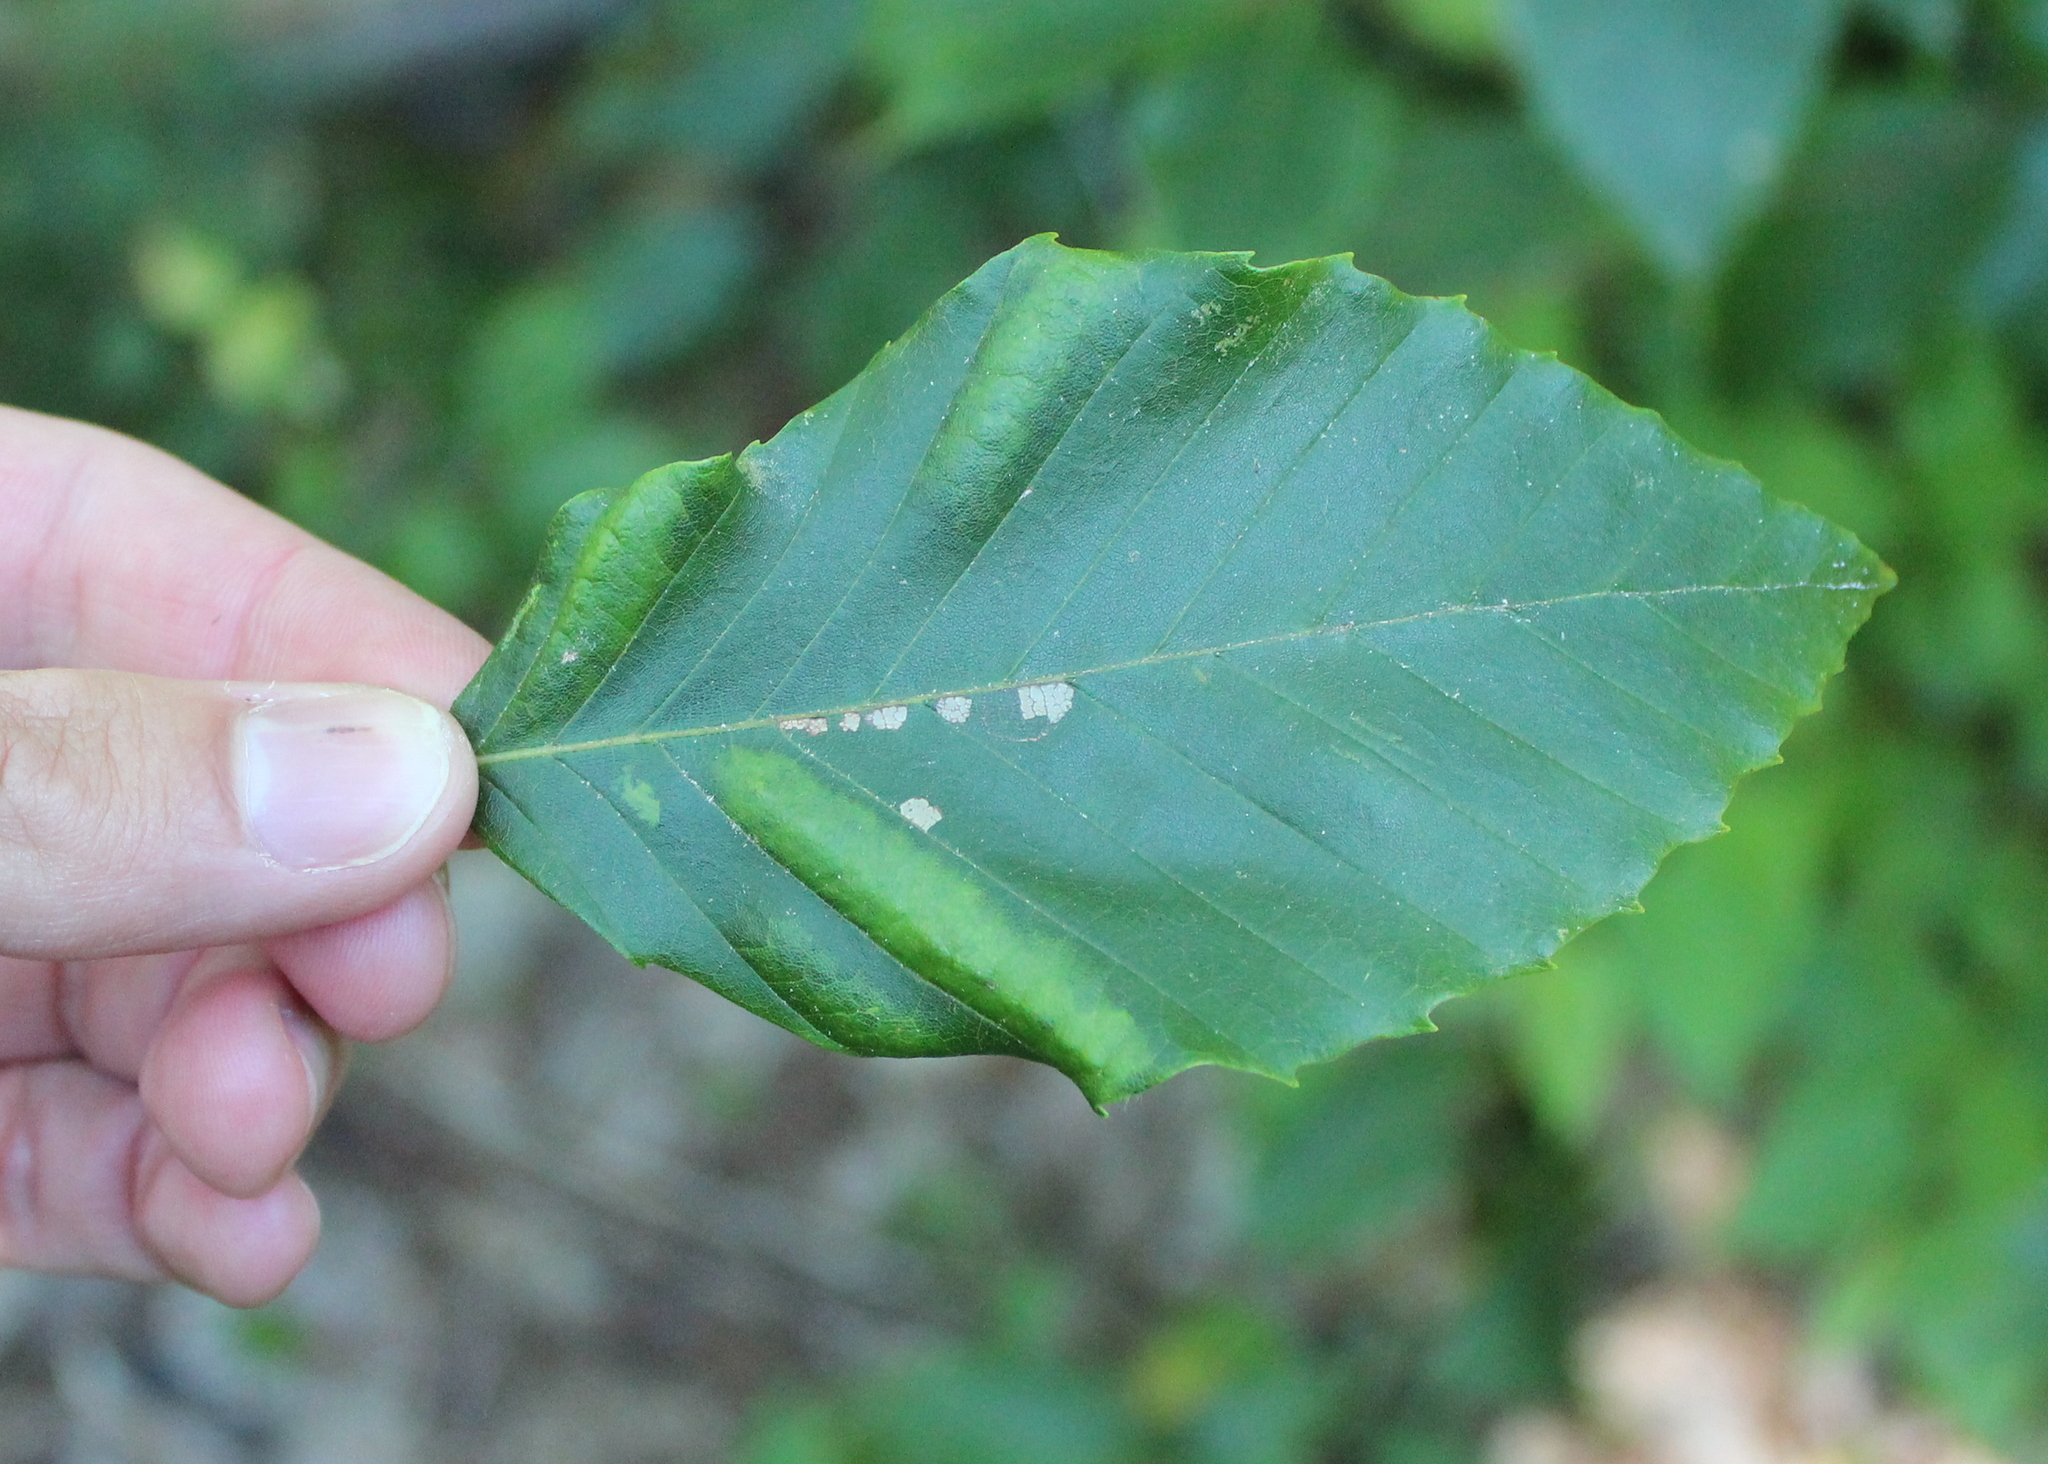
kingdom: Animalia
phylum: Nematoda
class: Chromadorea
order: Rhabditida
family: Anguinidae
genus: Litylenchus
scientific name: Litylenchus crenatae
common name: Beech leaf disease
